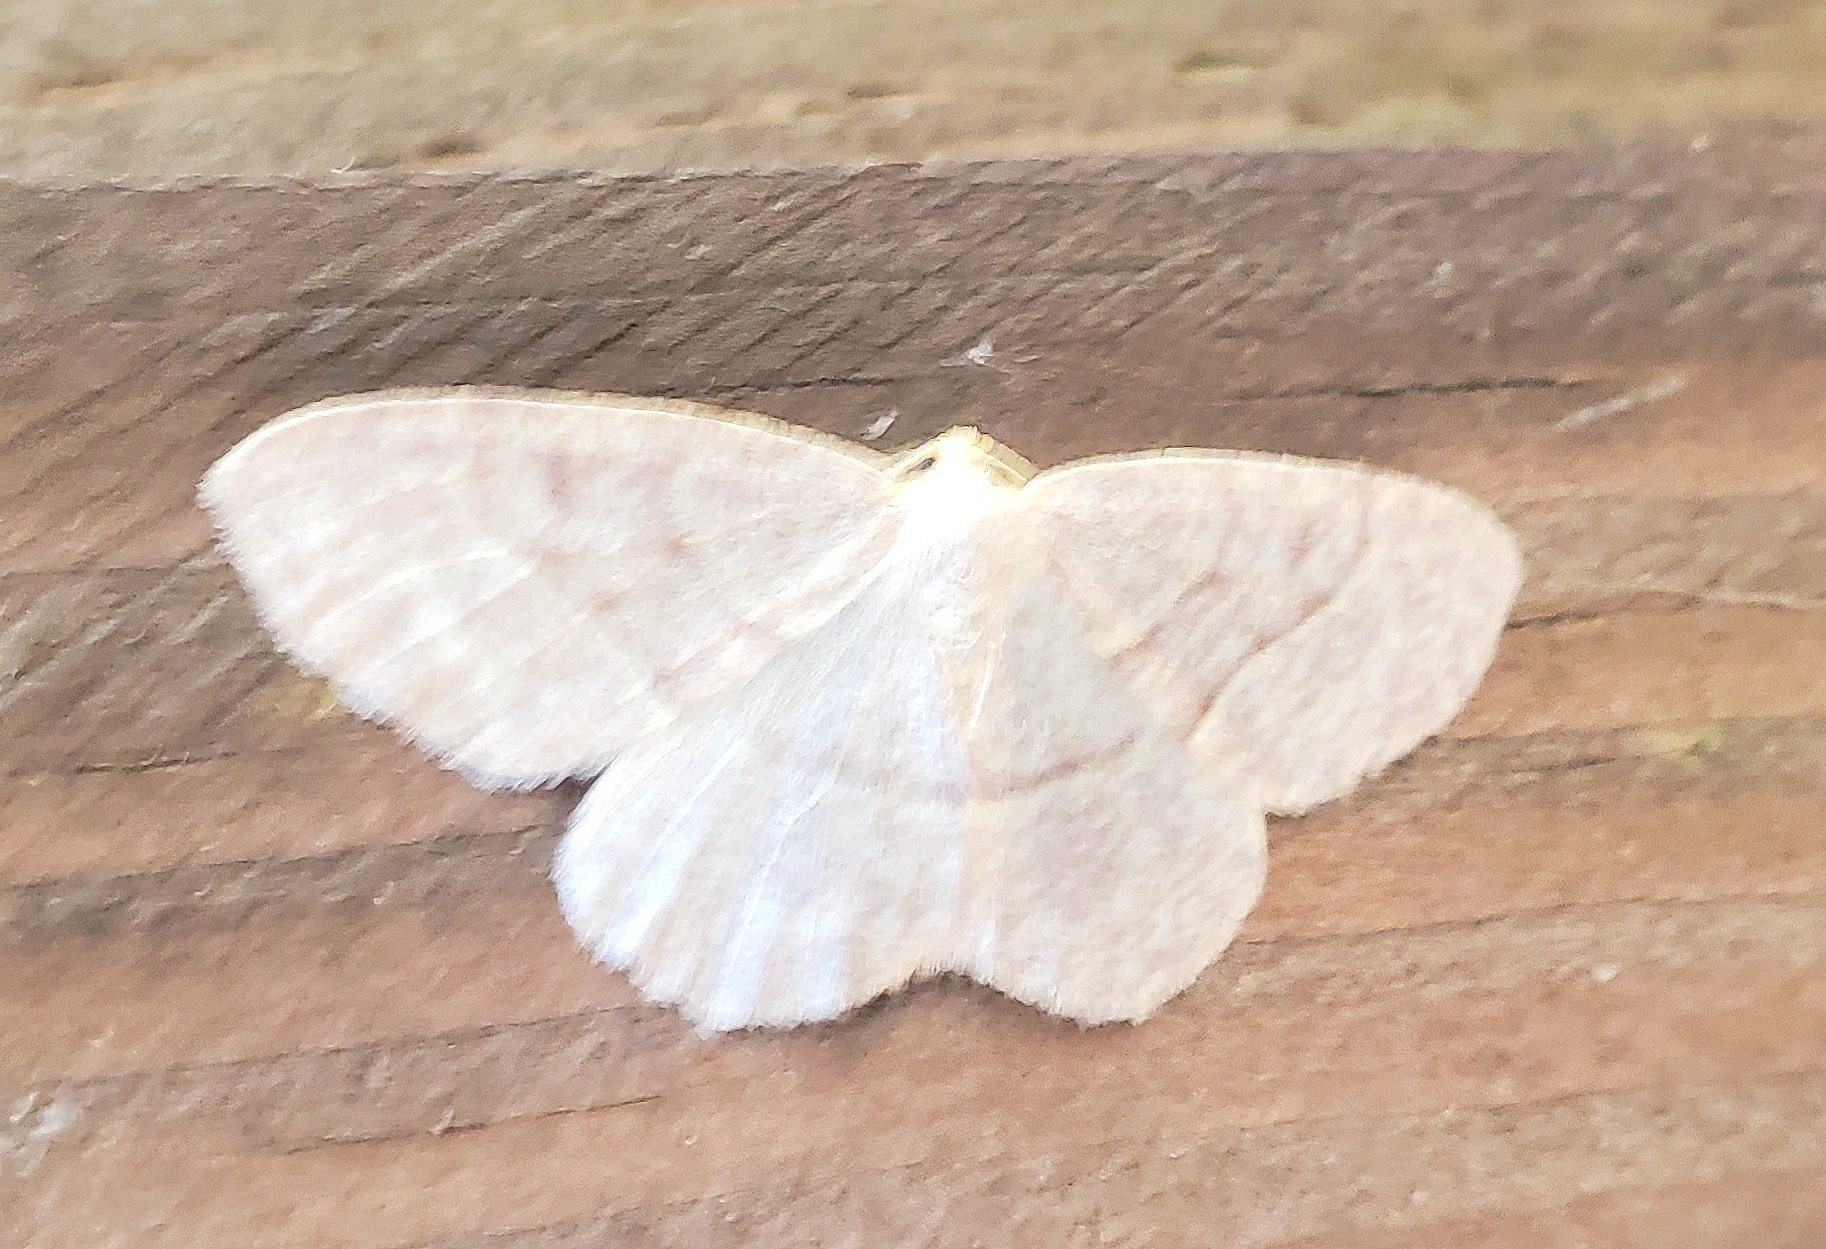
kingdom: Animalia
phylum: Arthropoda
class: Insecta
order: Lepidoptera
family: Geometridae
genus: Lambdina
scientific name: Lambdina fervidaria
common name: Curve-lined looper moth
